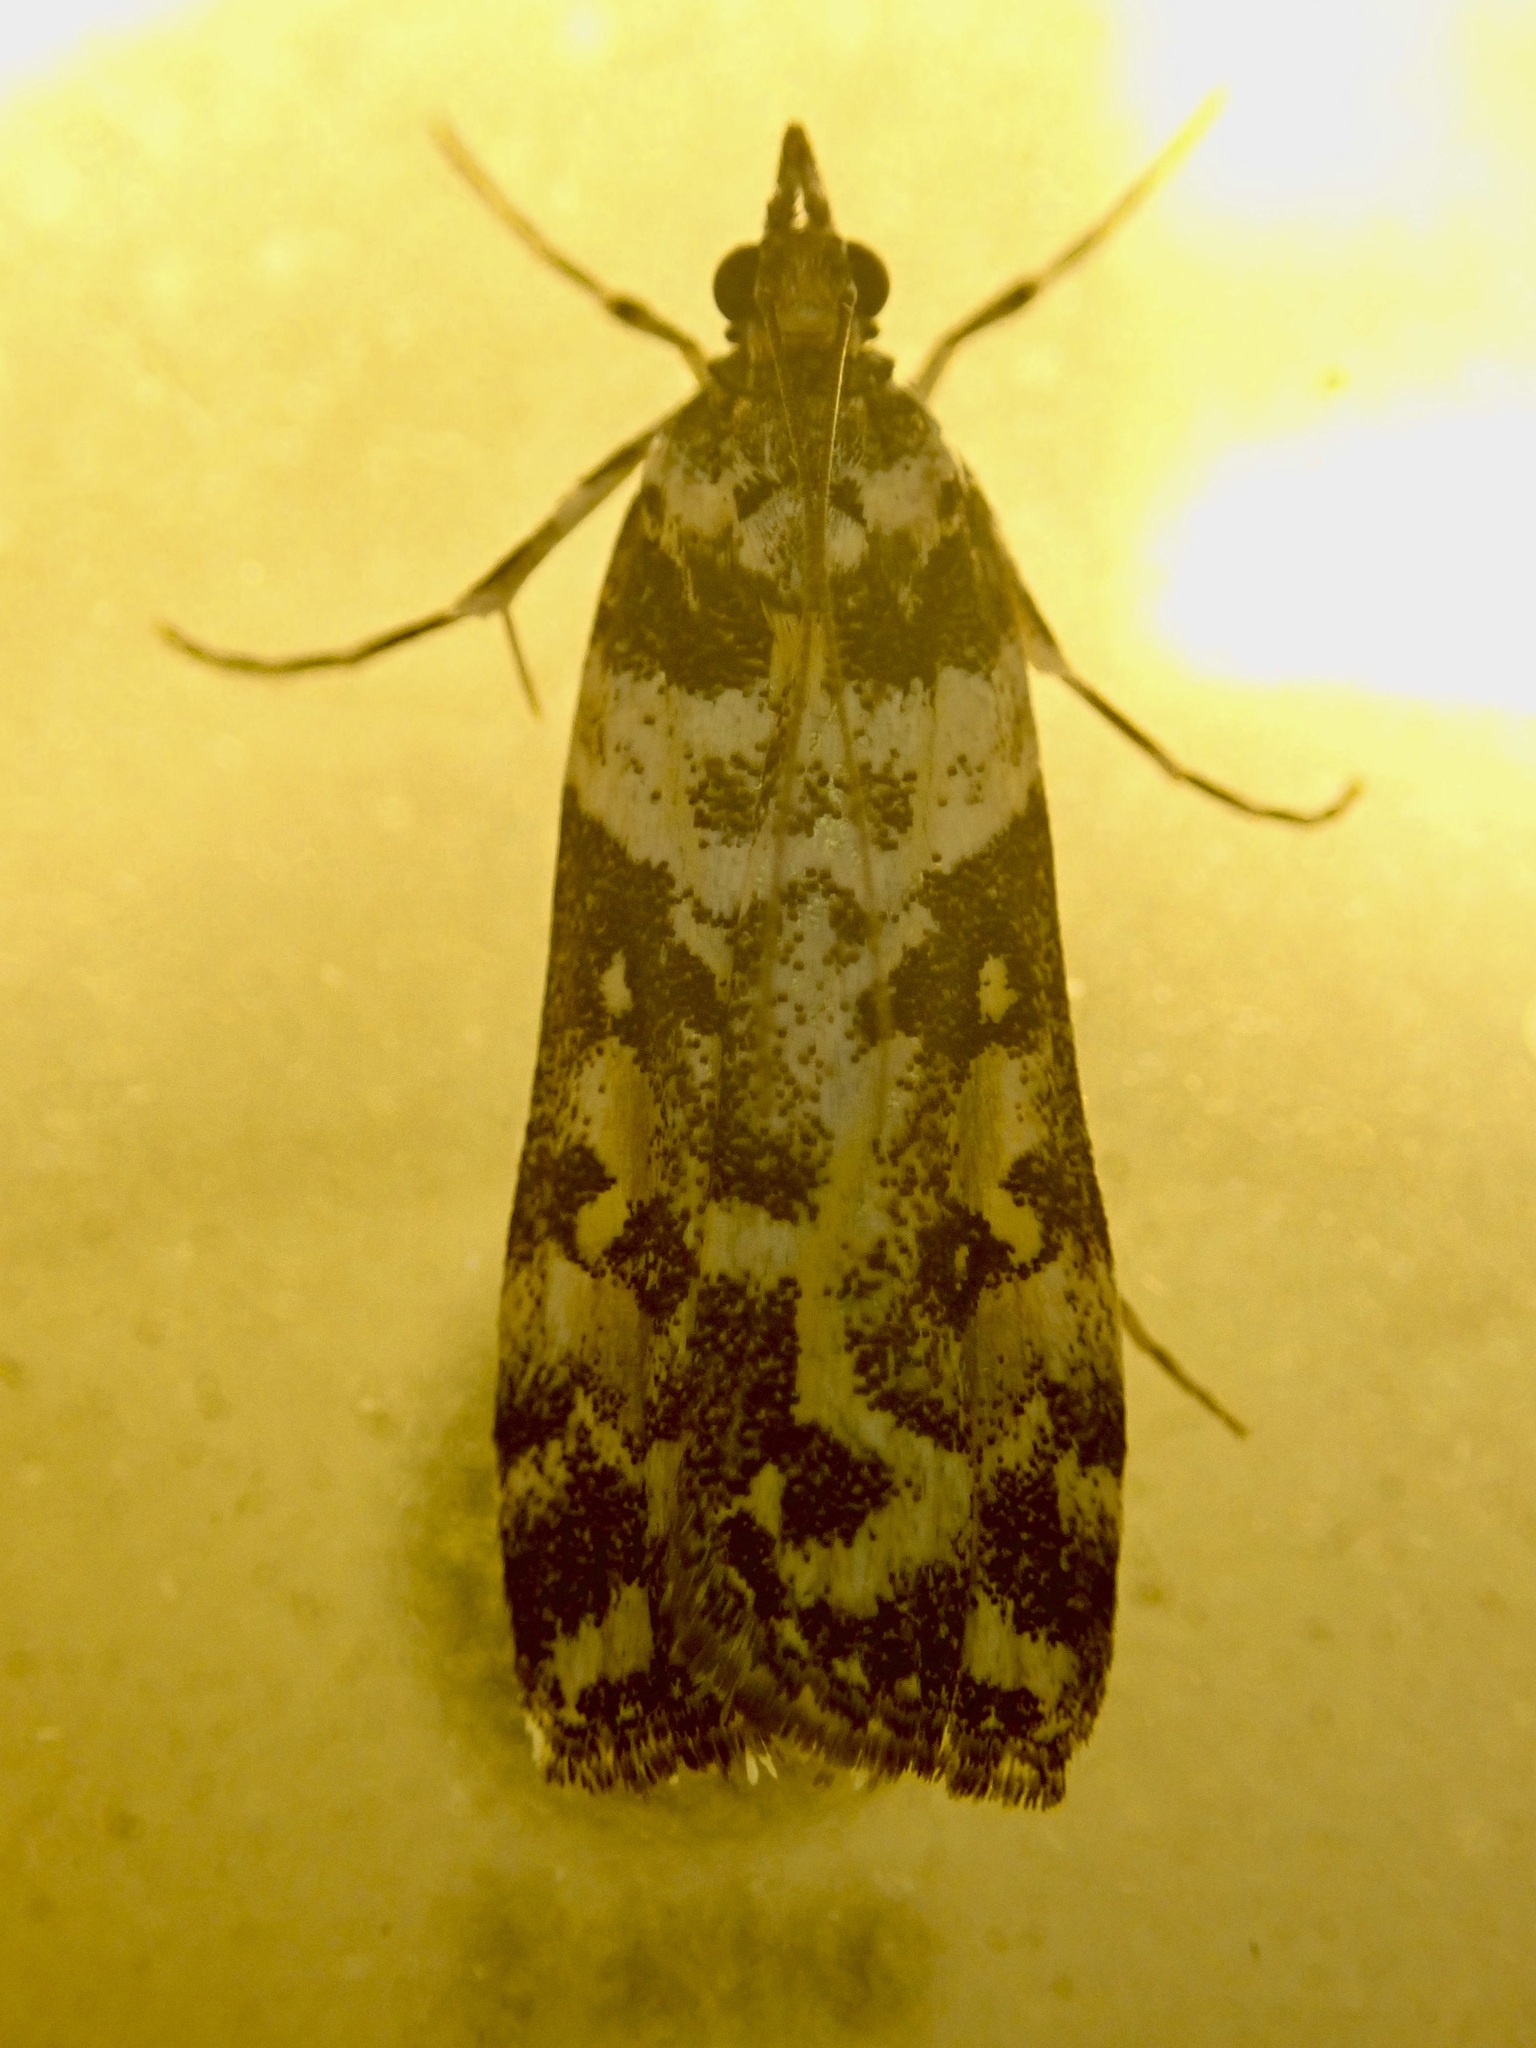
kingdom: Animalia
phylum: Arthropoda
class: Insecta
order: Lepidoptera
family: Crambidae
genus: Eudonia
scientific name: Eudonia diphtheralis
